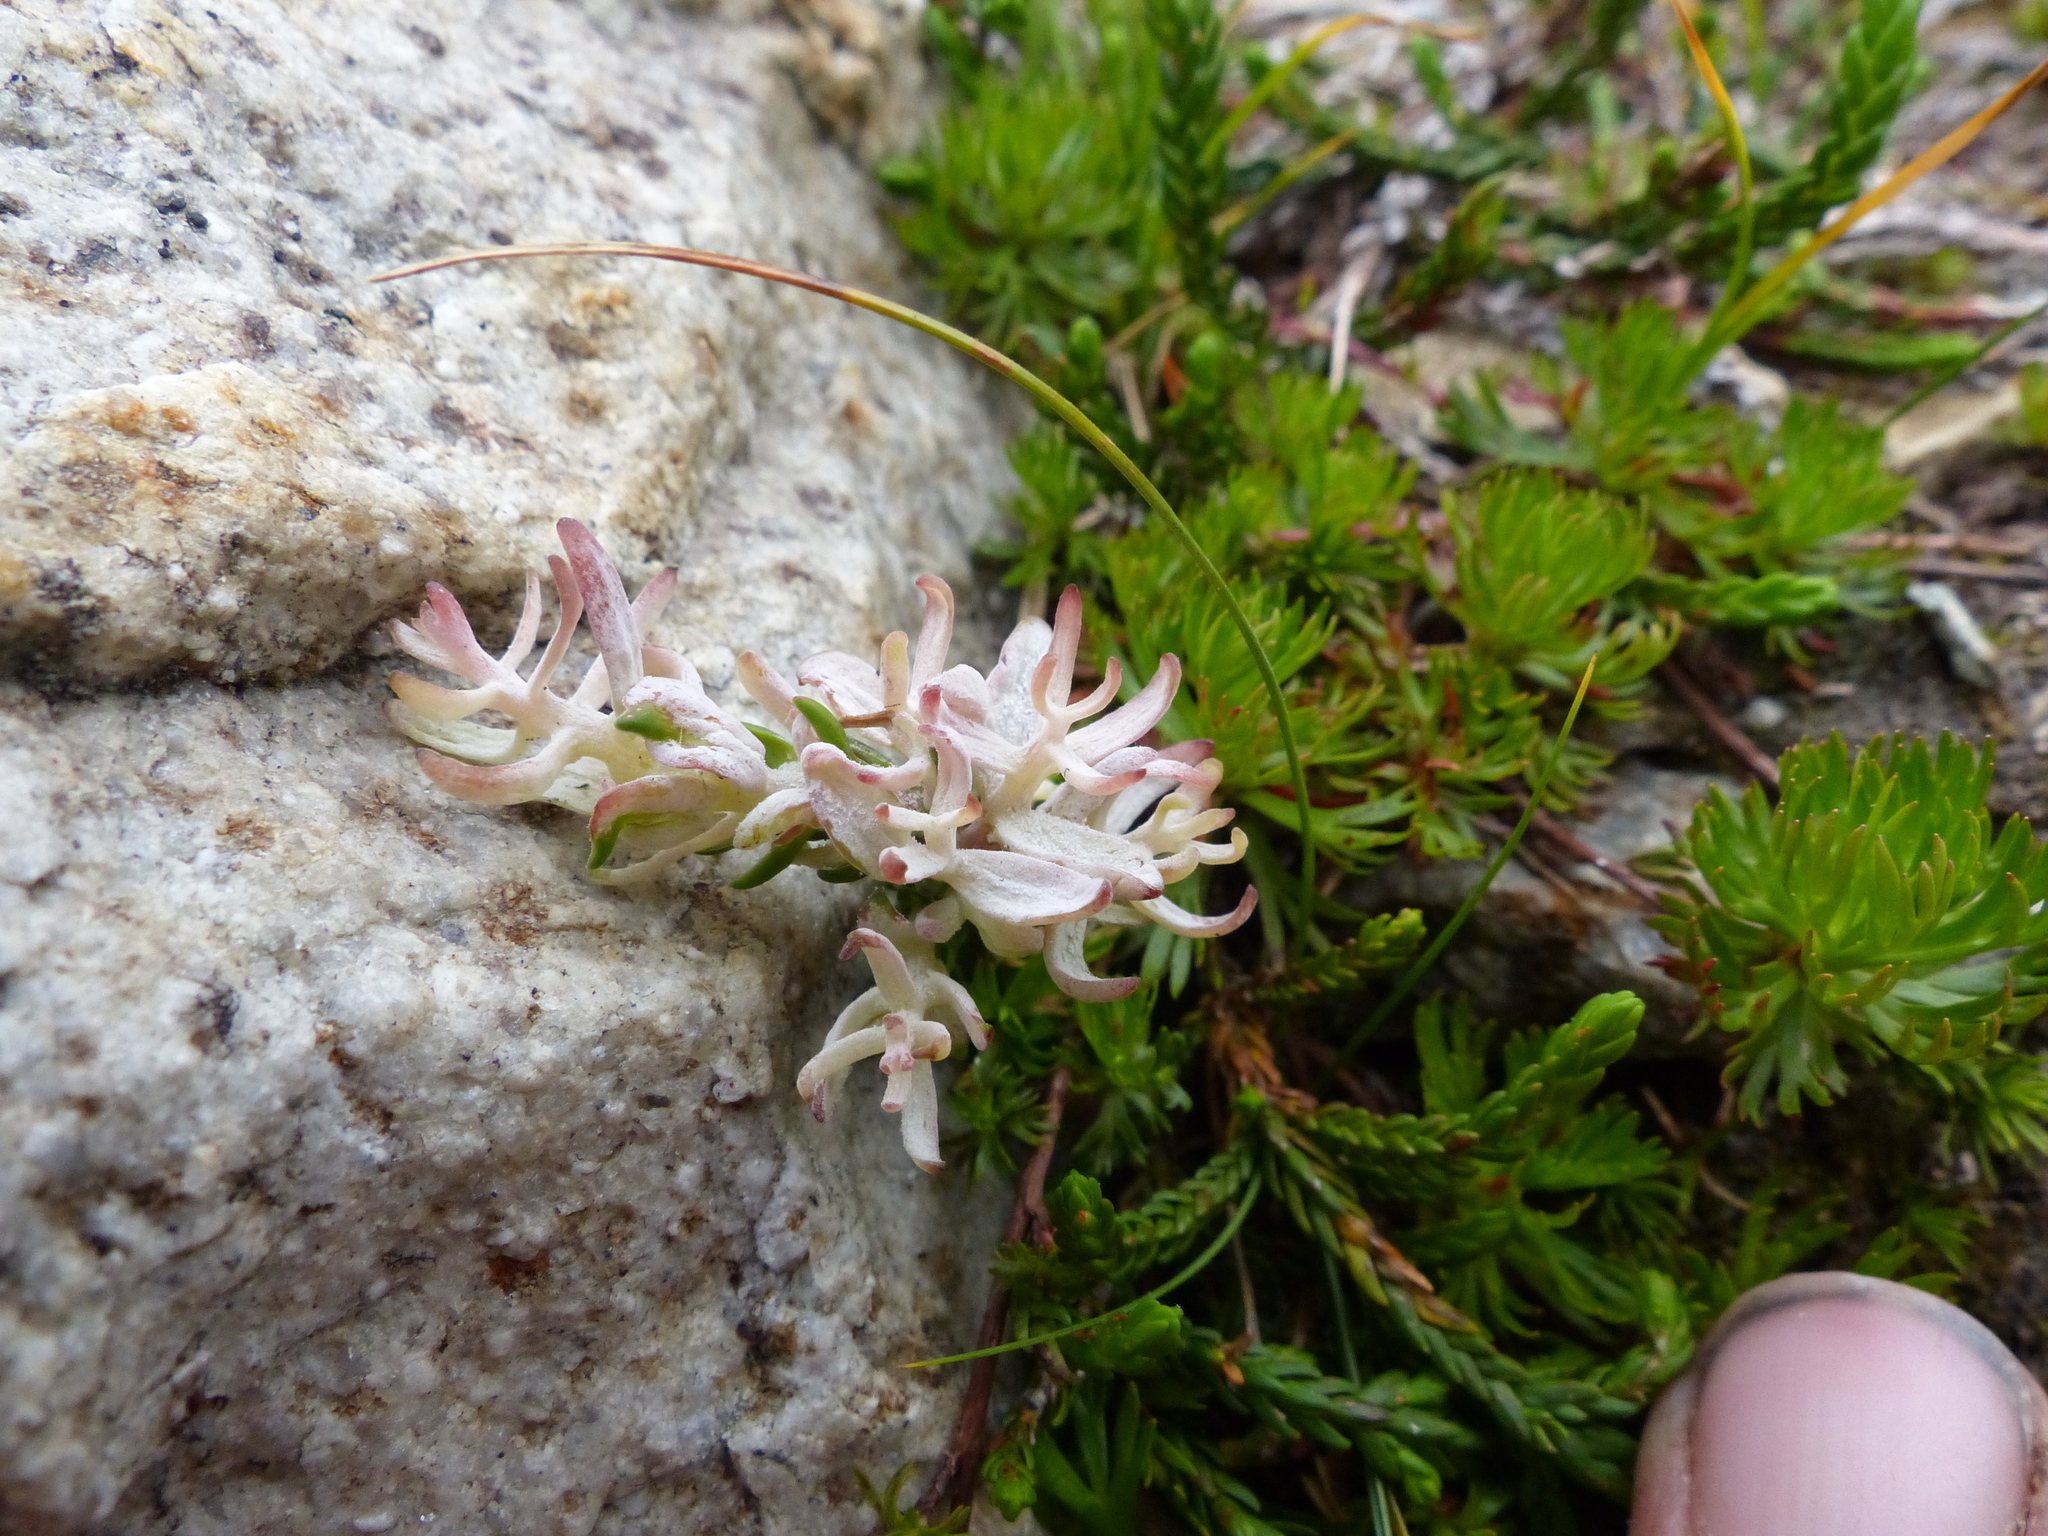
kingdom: Fungi
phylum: Basidiomycota
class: Exobasidiomycetes
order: Exobasidiales
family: Exobasidiaceae
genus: Exobasidium
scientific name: Exobasidium cassiopes
